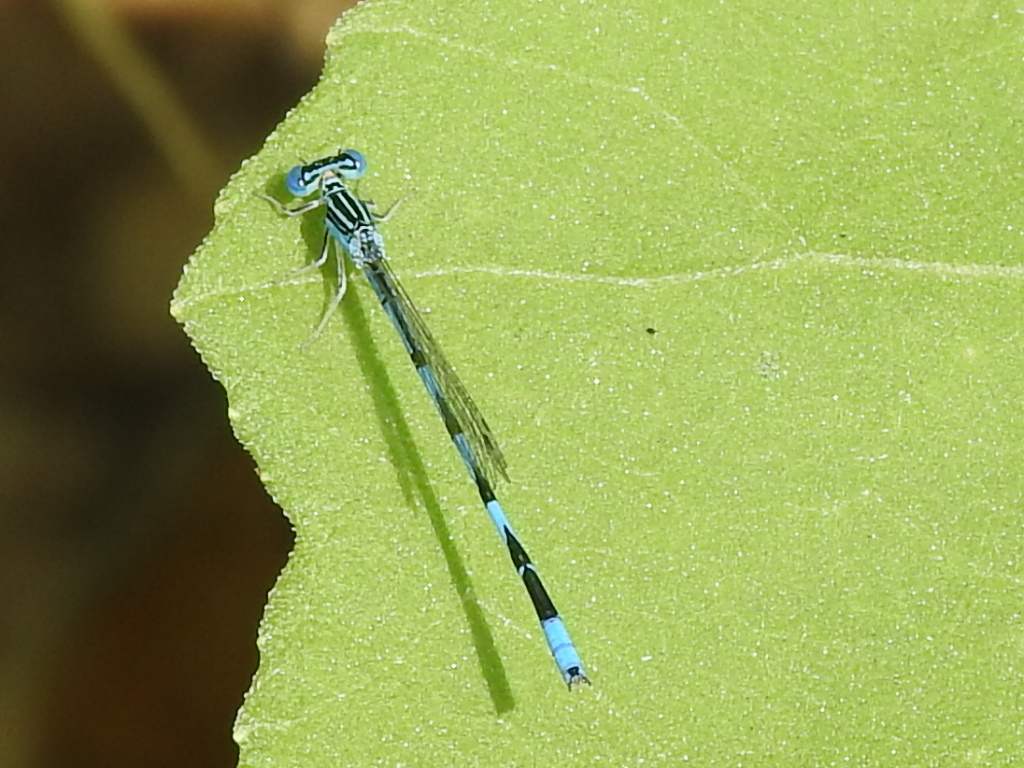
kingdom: Animalia
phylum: Arthropoda
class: Insecta
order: Odonata
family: Coenagrionidae
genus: Enallagma
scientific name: Enallagma basidens
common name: Double-striped bluet
